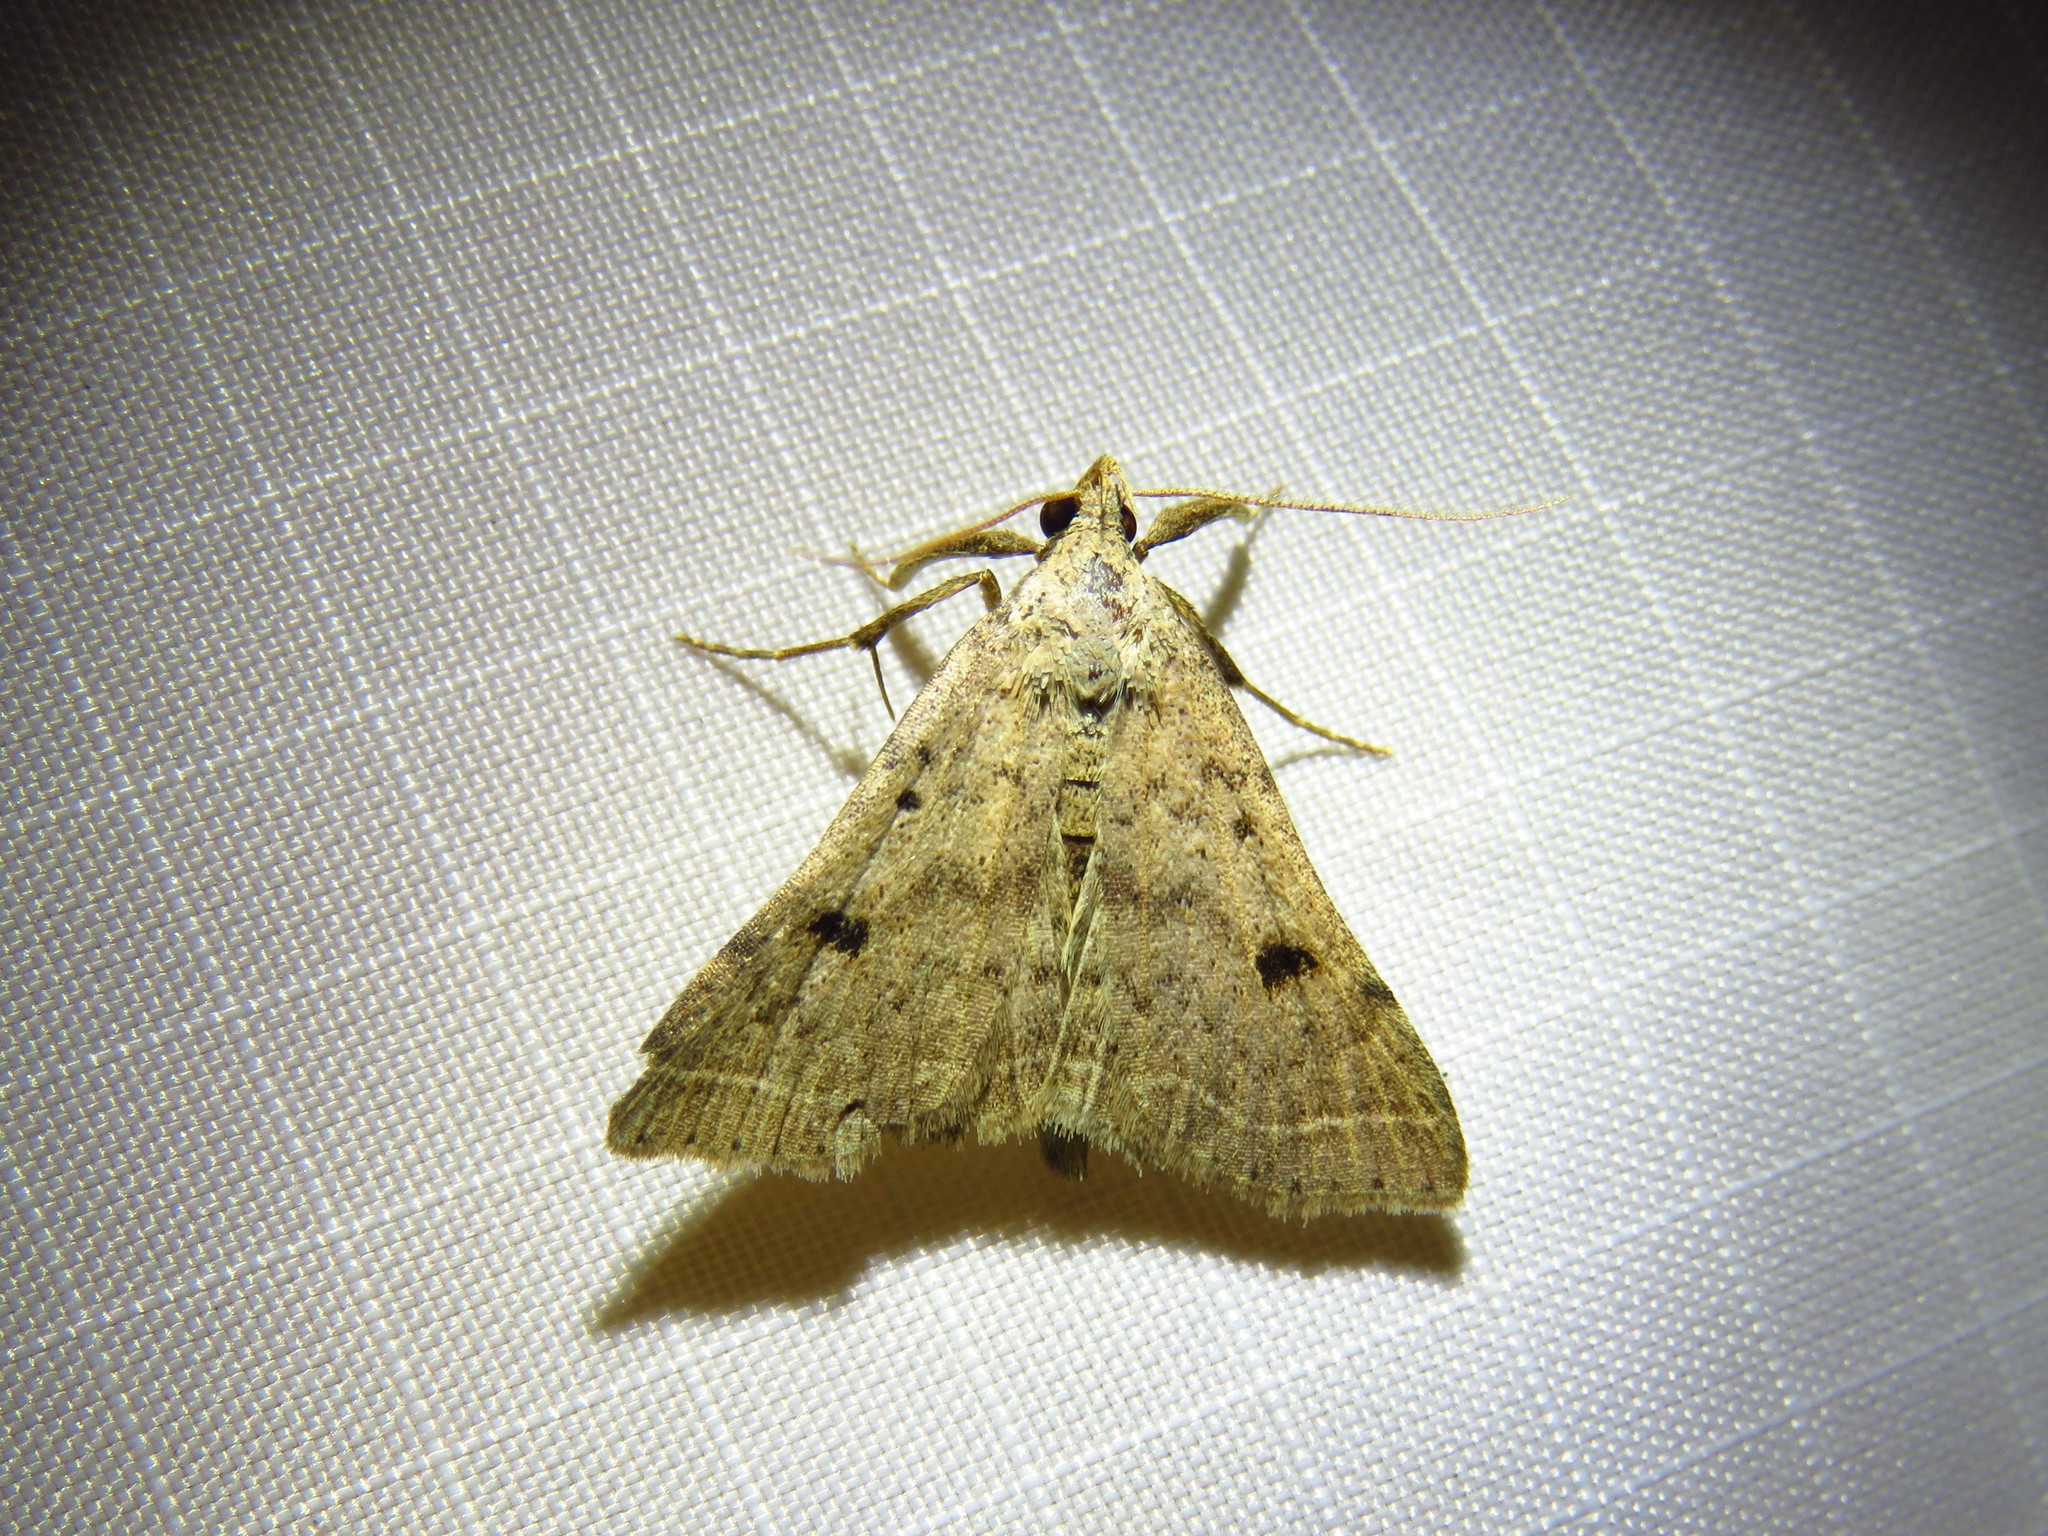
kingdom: Animalia
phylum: Arthropoda
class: Insecta
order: Lepidoptera
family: Erebidae
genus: Bleptina
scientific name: Bleptina caradrinalis
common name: Bent-winged owlet
